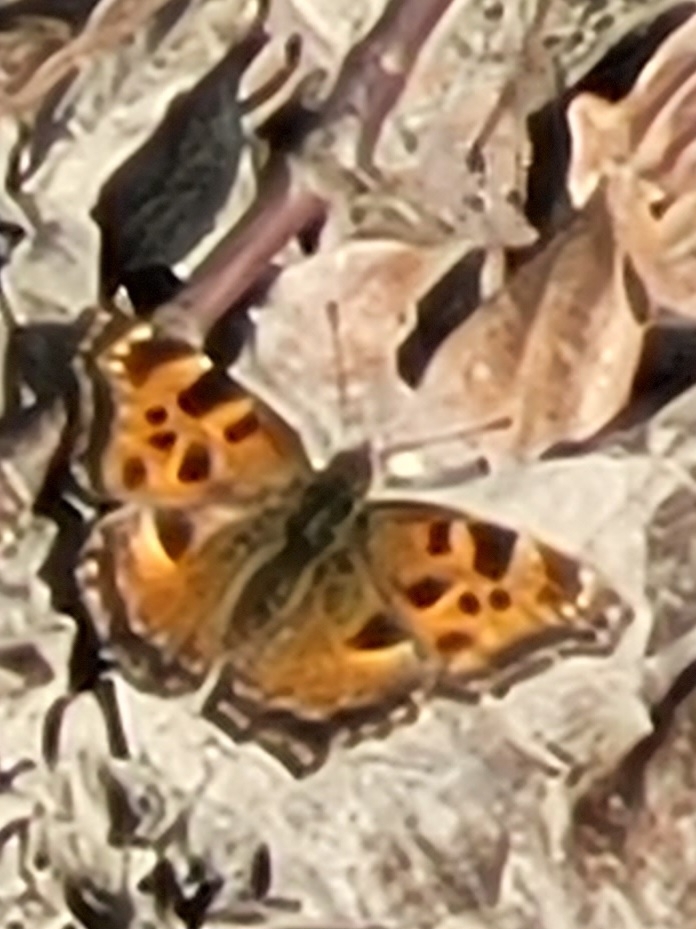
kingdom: Animalia
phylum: Arthropoda
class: Insecta
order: Lepidoptera
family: Nymphalidae
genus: Nymphalis
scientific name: Nymphalis polychloros
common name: Large tortoiseshell
